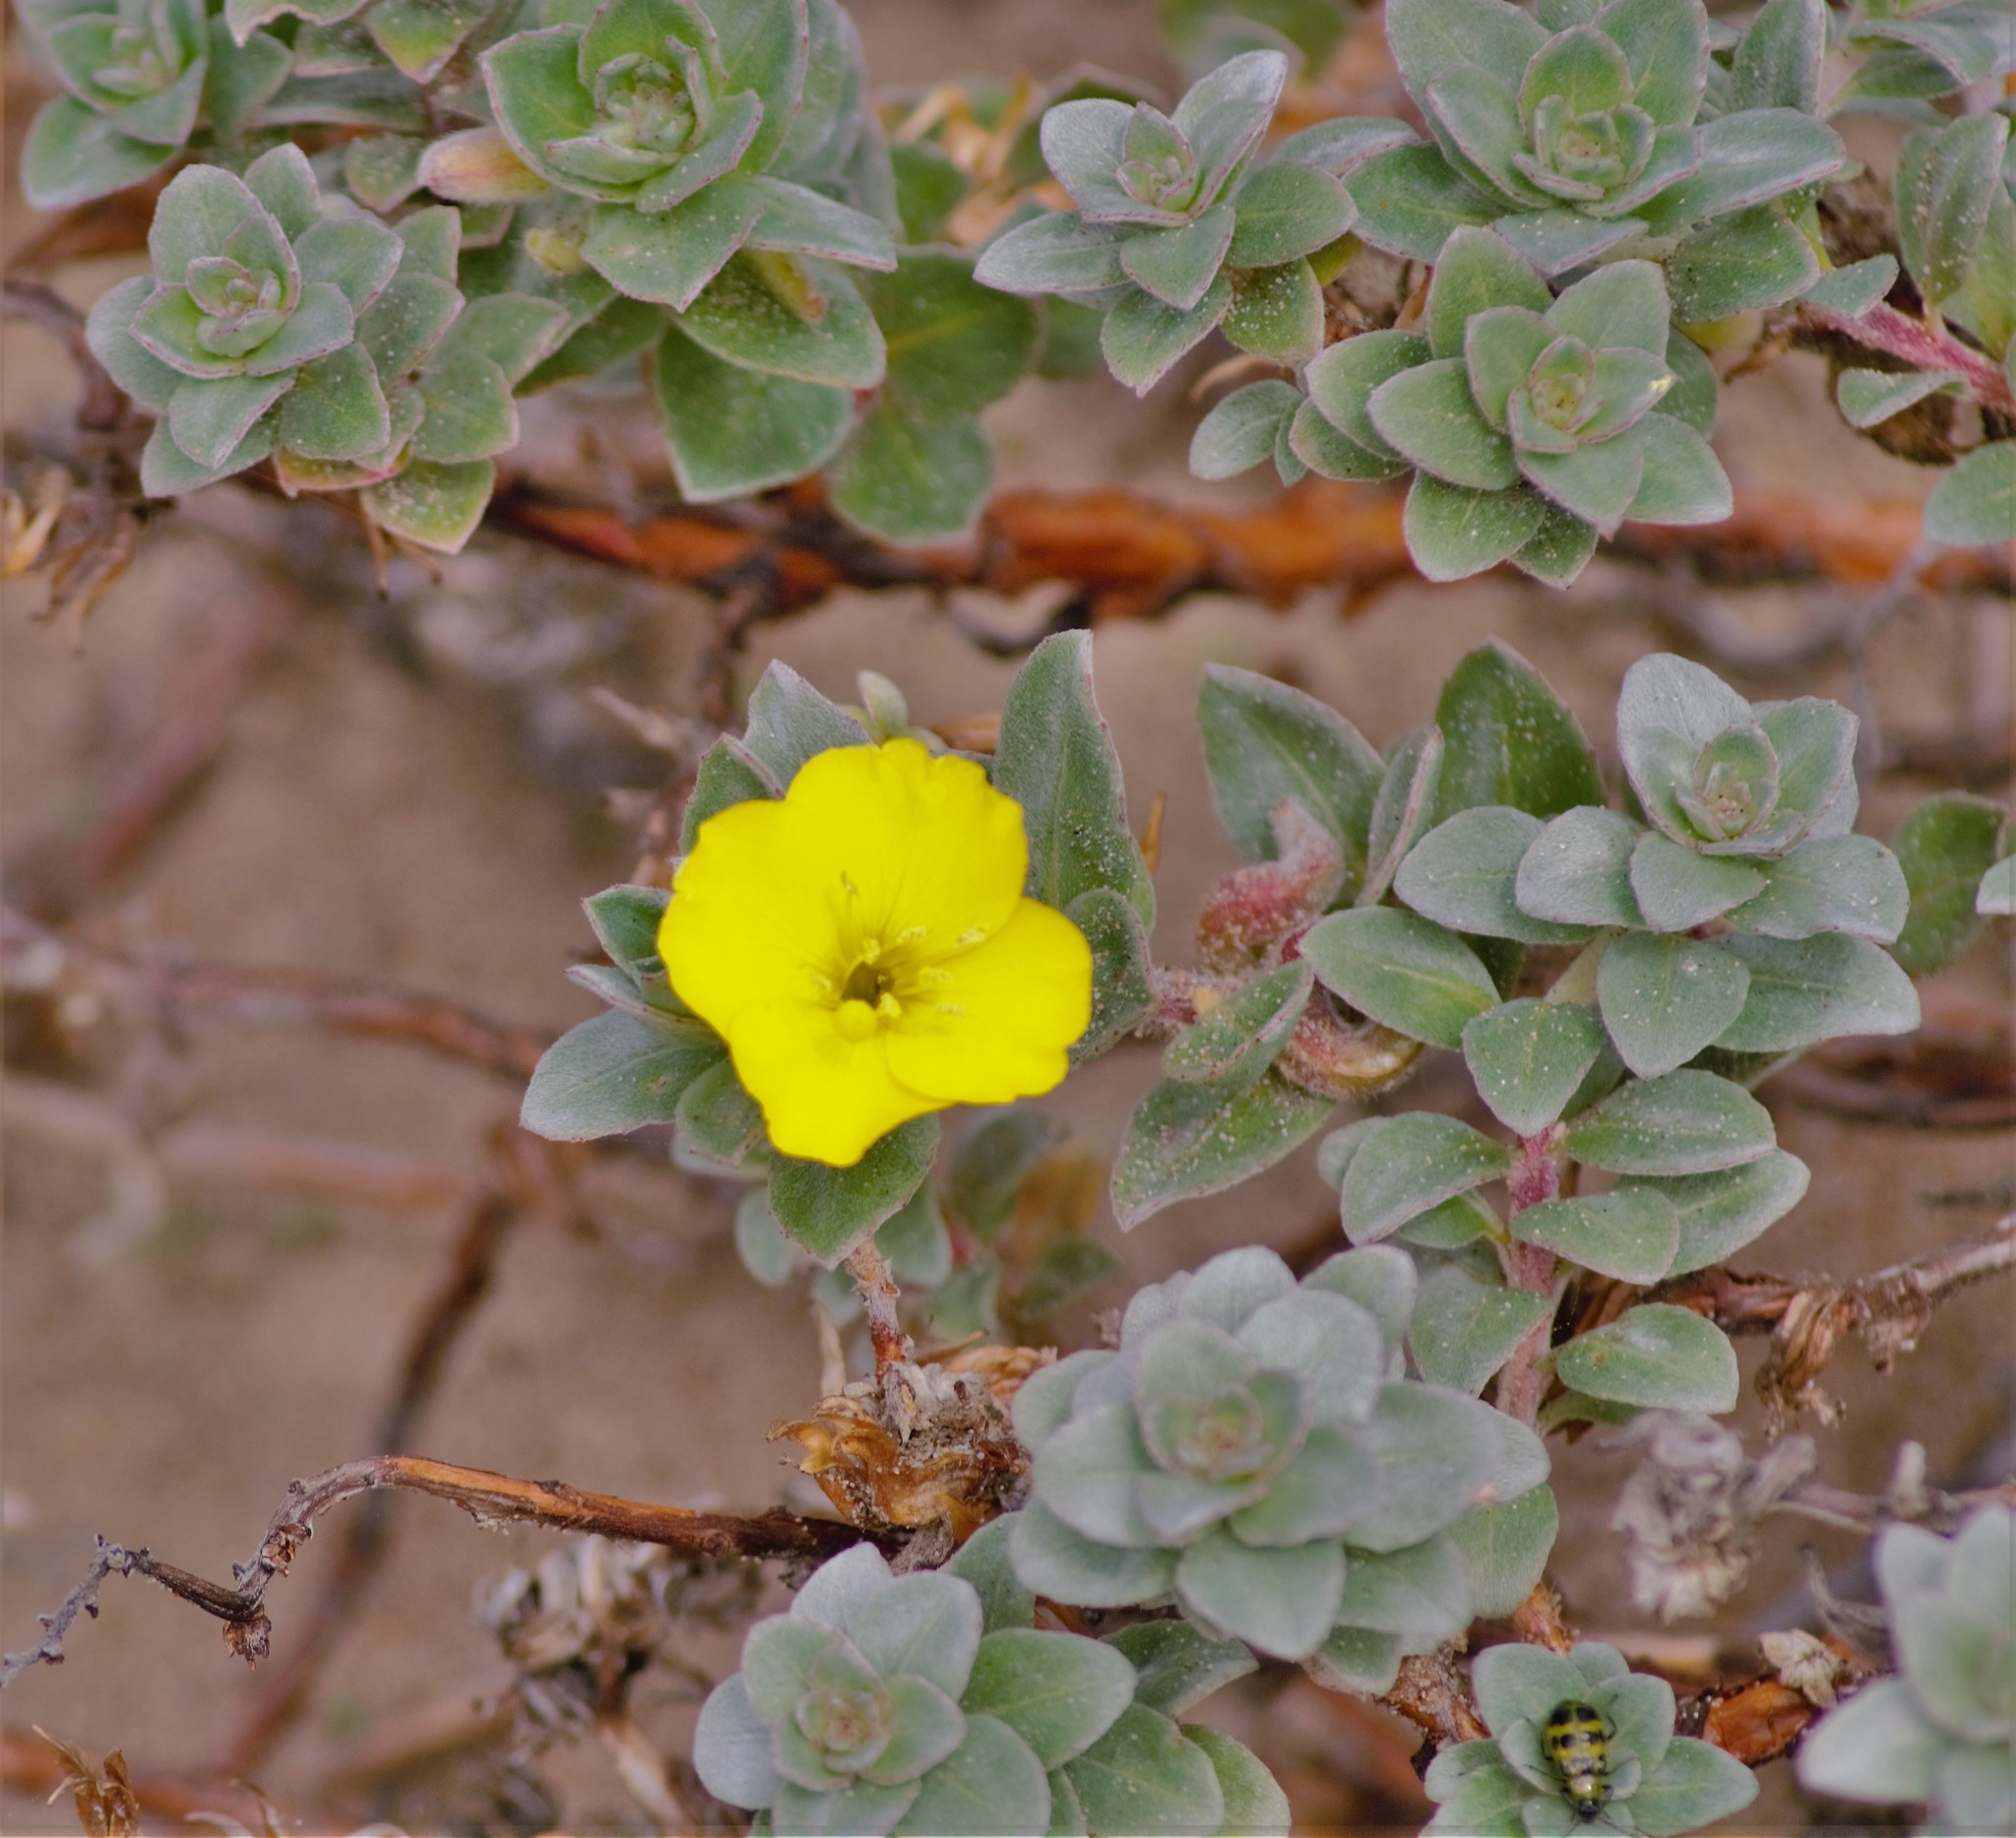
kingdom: Plantae
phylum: Tracheophyta
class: Magnoliopsida
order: Myrtales
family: Onagraceae
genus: Camissoniopsis
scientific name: Camissoniopsis cheiranthifolia
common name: Beach suncup
